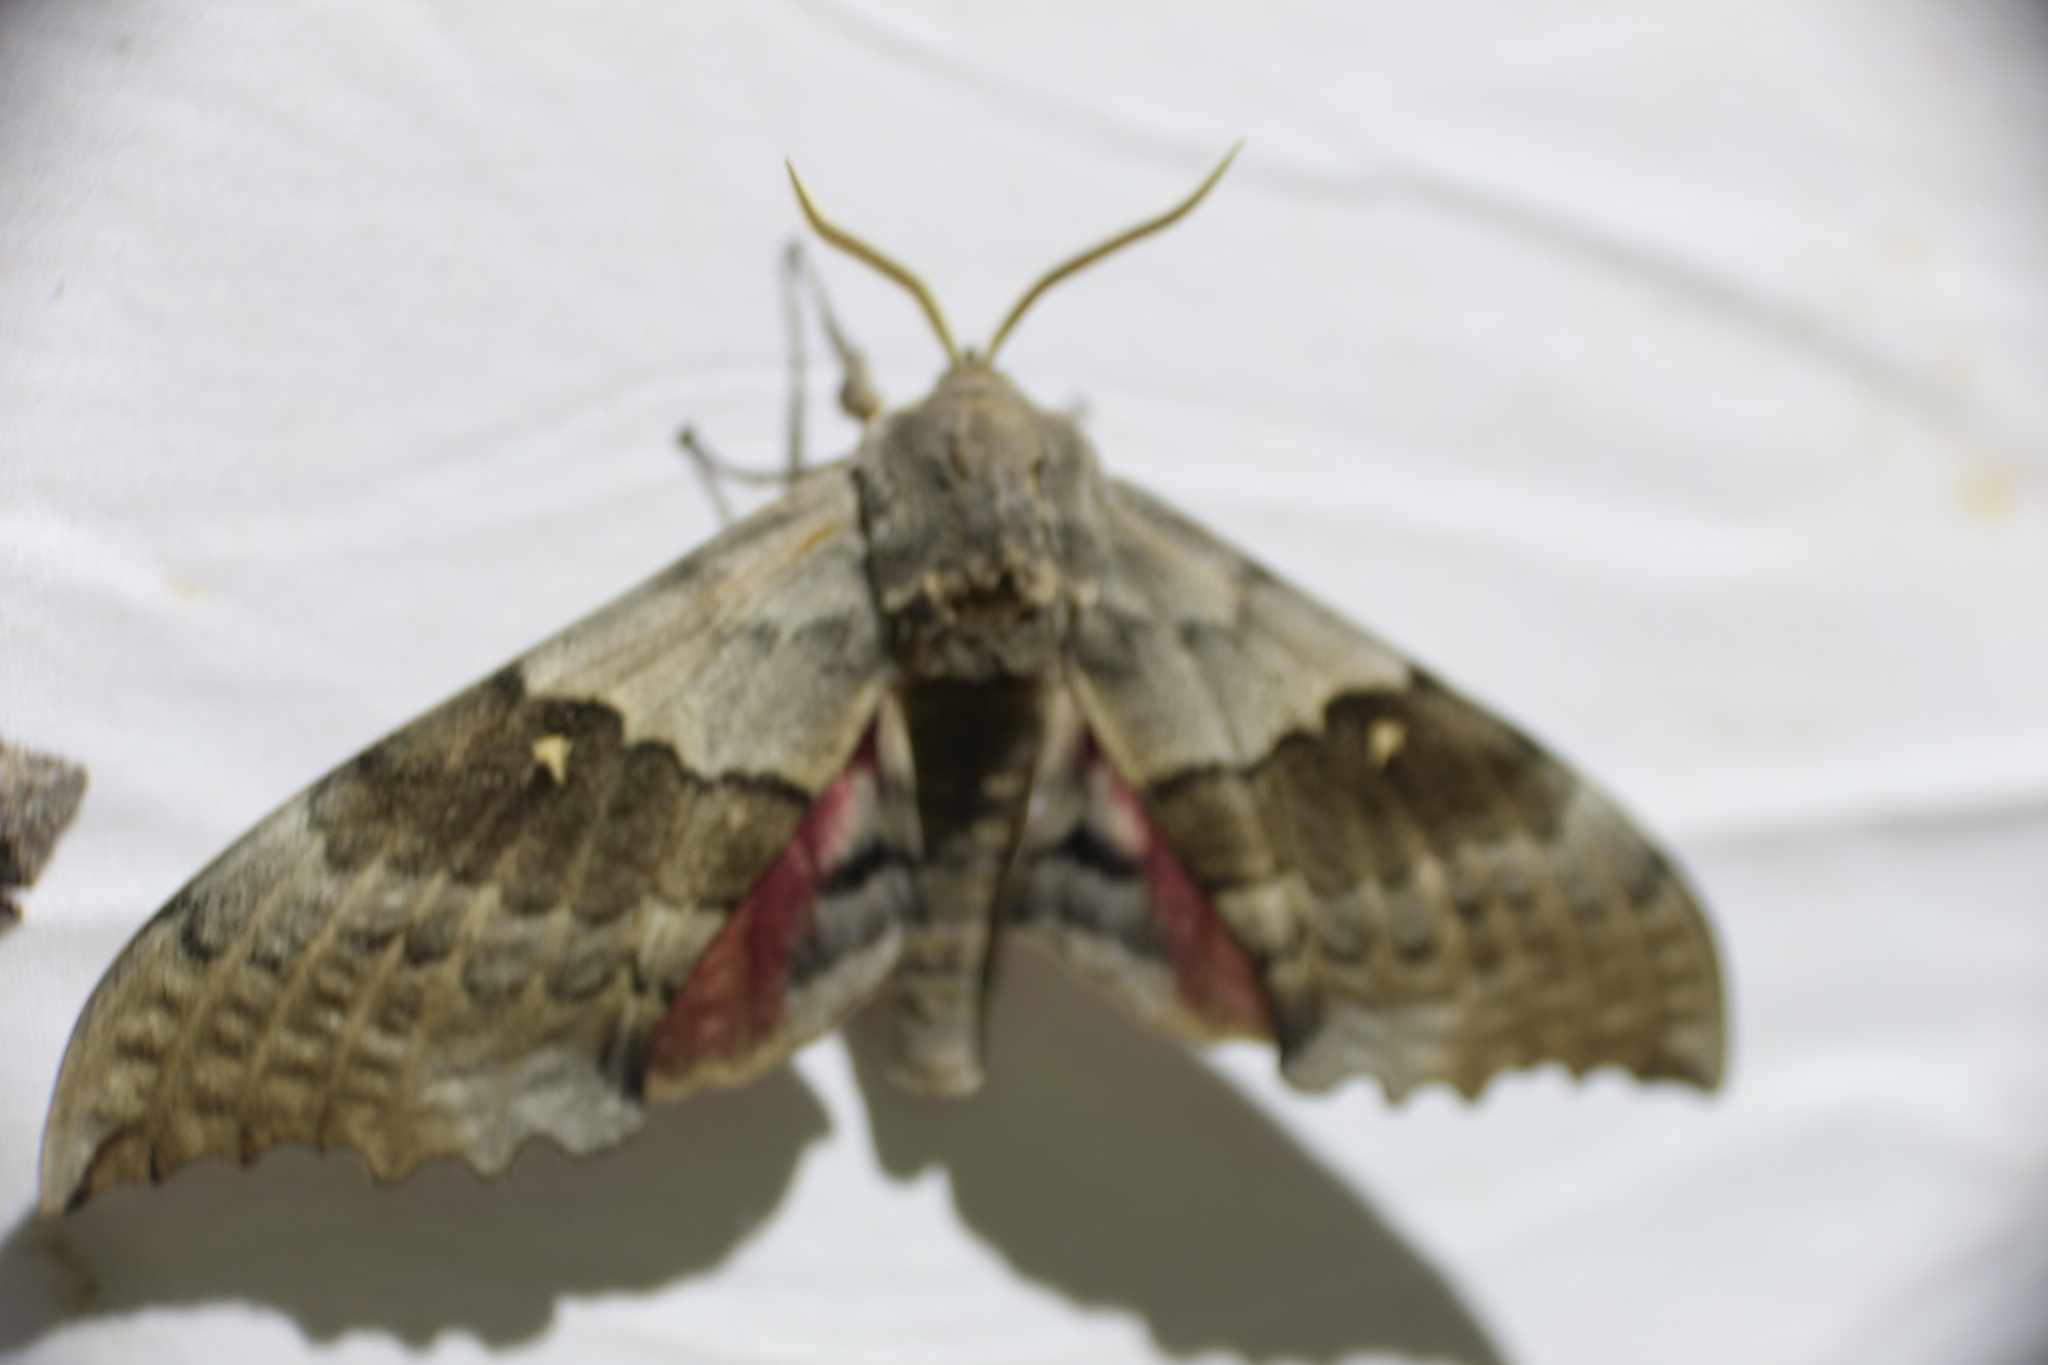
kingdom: Animalia
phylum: Arthropoda
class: Insecta
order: Lepidoptera
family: Sphingidae
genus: Pachysphinx
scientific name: Pachysphinx occidentalis
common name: Western poplar sphinx
